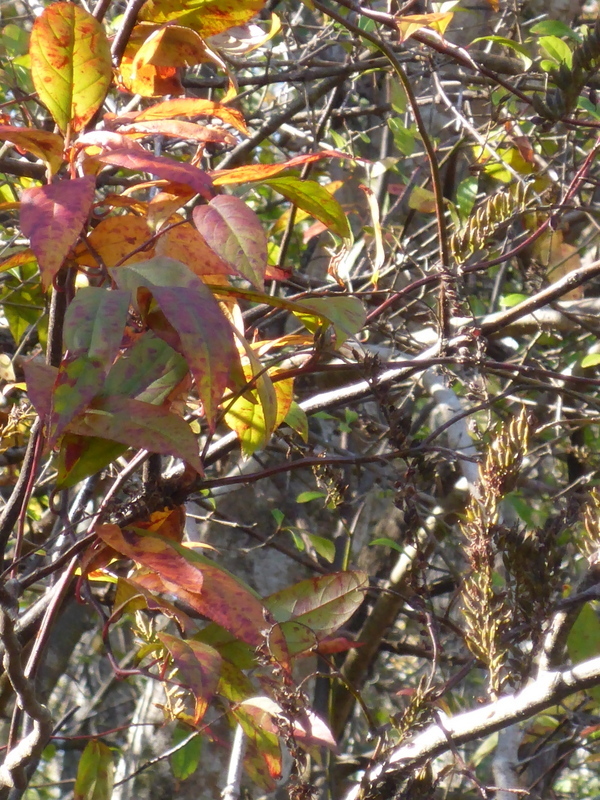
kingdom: Plantae
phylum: Tracheophyta
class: Magnoliopsida
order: Saxifragales
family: Iteaceae
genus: Itea
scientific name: Itea virginica
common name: Sweetspire
